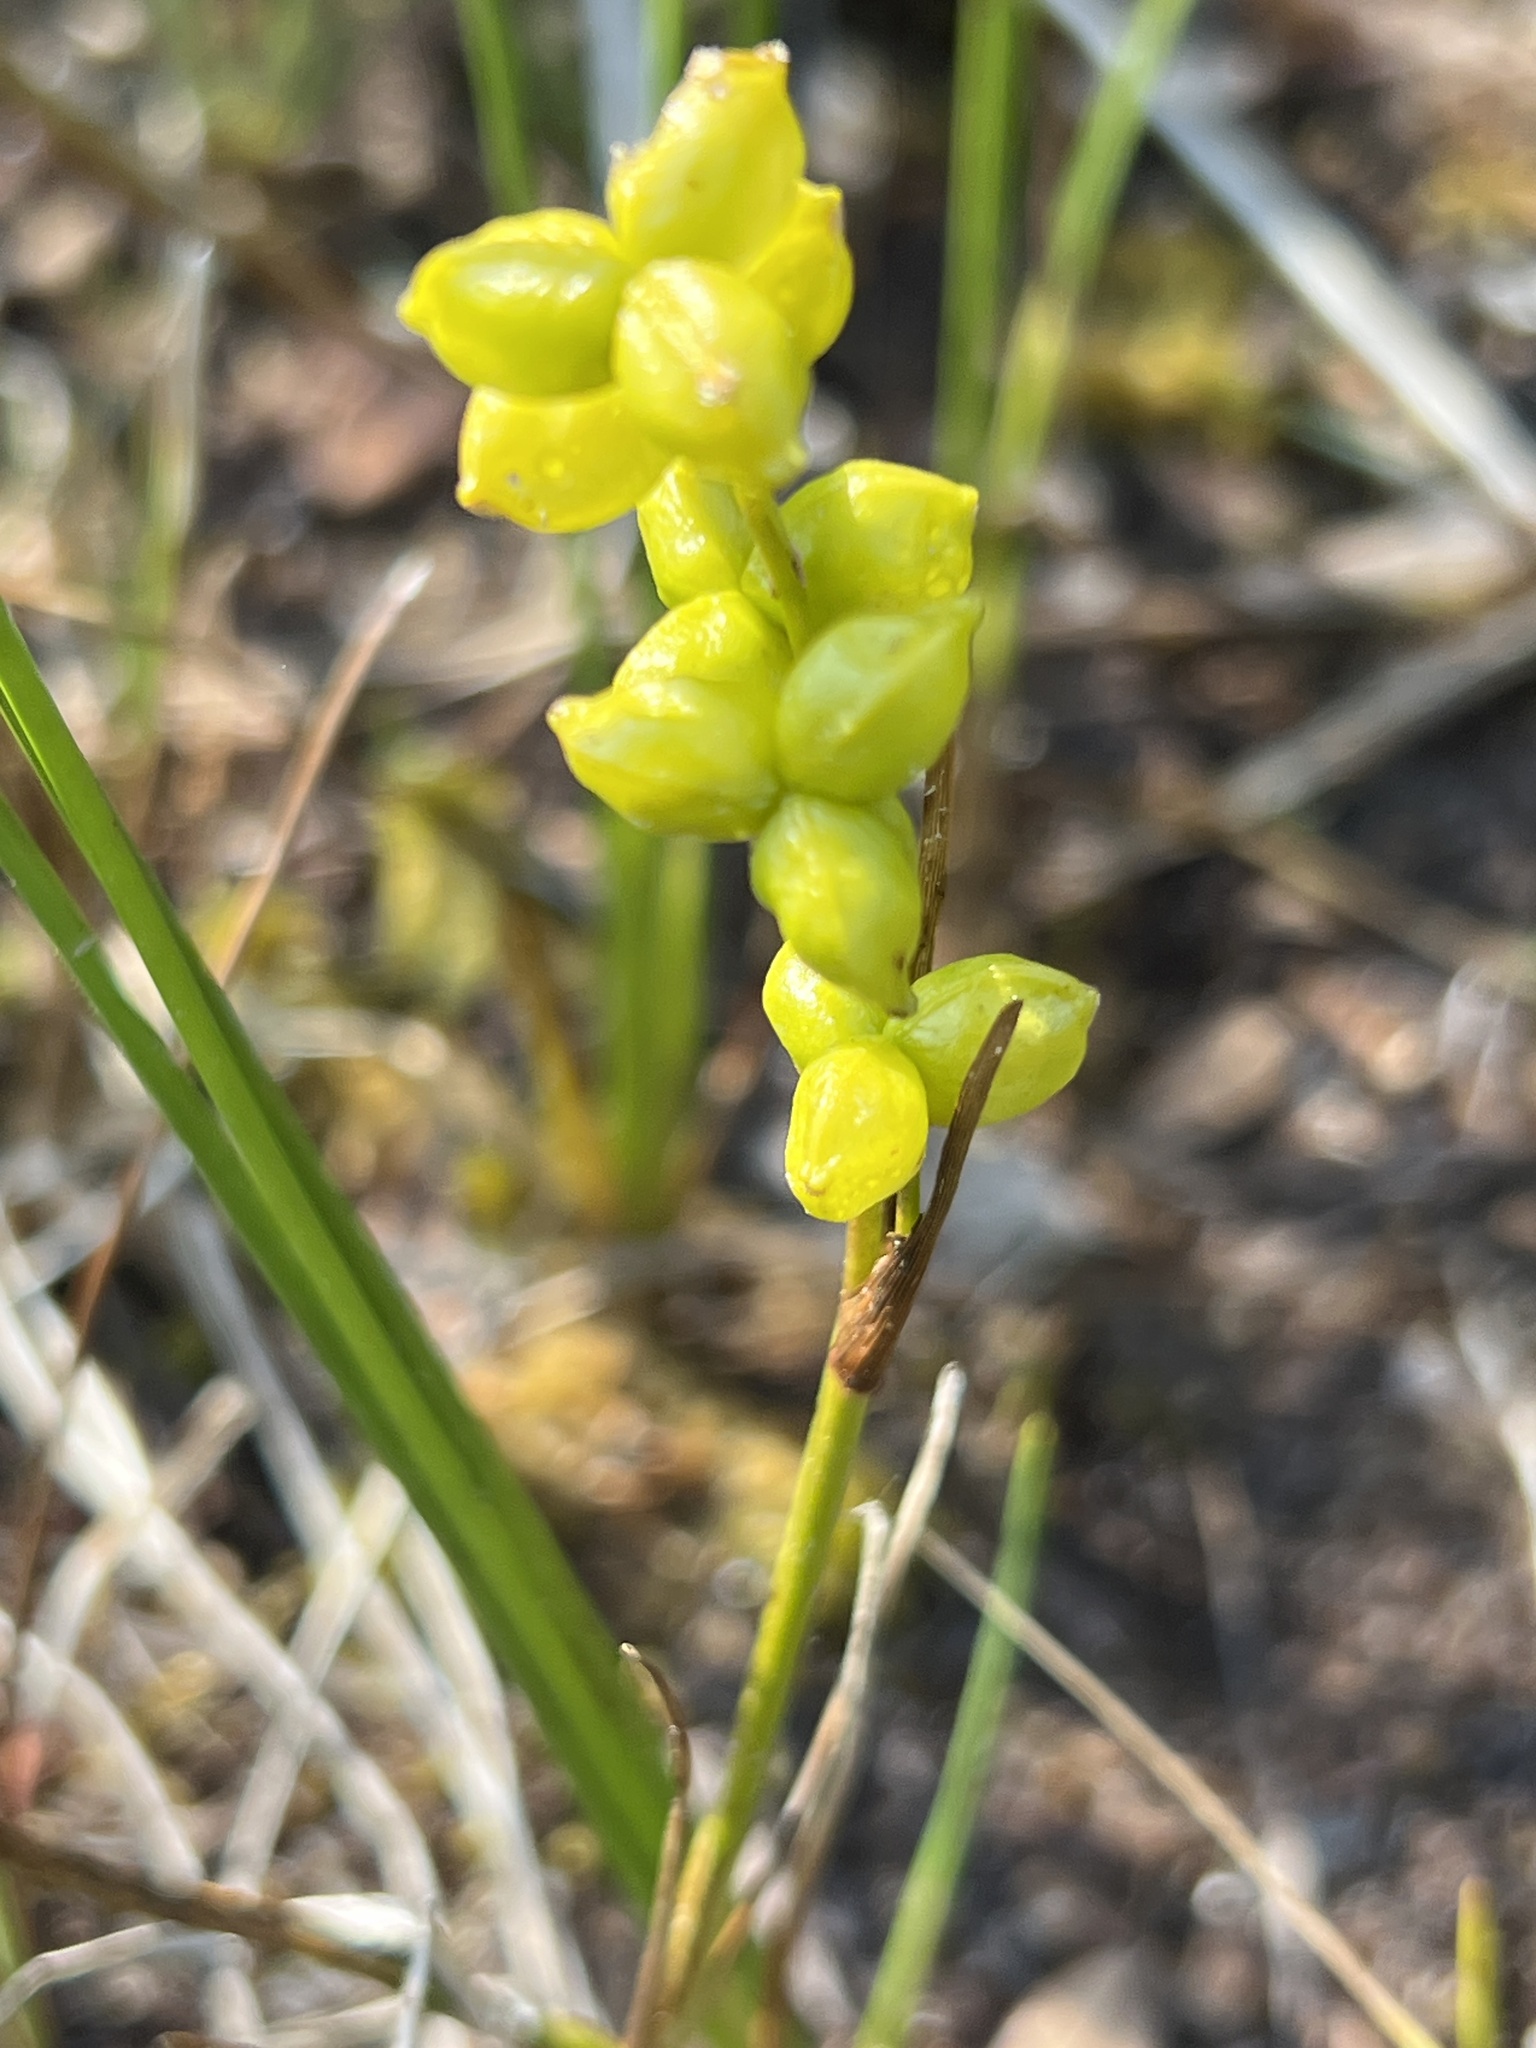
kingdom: Plantae
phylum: Tracheophyta
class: Liliopsida
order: Alismatales
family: Scheuchzeriaceae
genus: Scheuchzeria
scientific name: Scheuchzeria palustris
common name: Rannoch-rush
